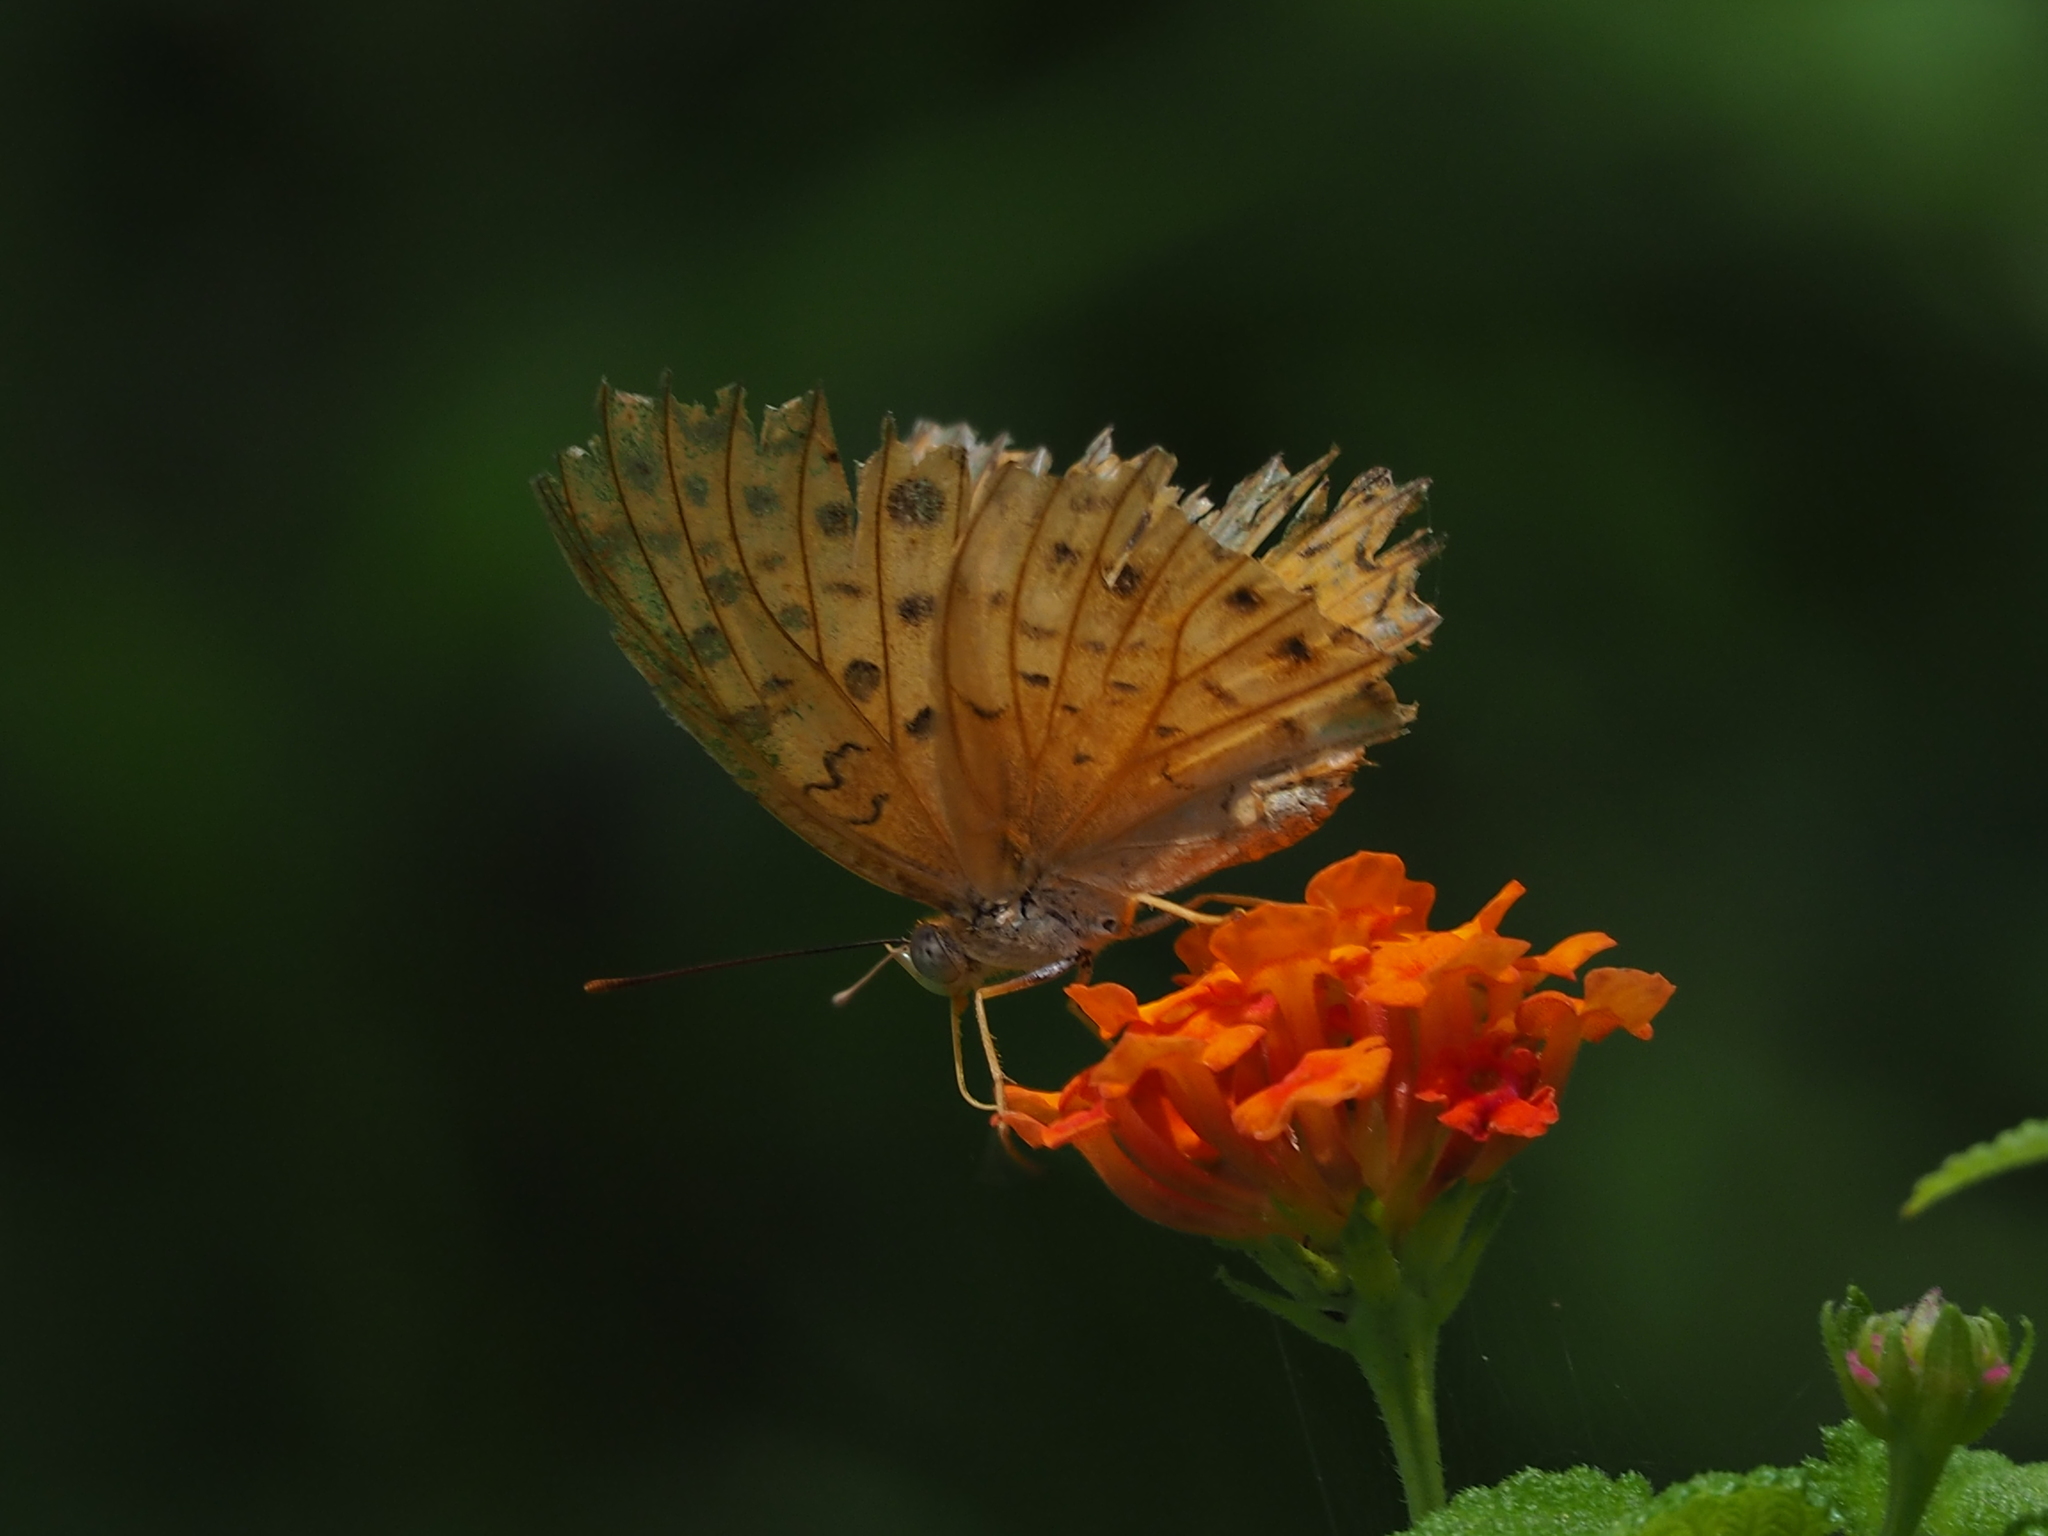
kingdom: Animalia
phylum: Arthropoda
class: Insecta
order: Lepidoptera
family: Nymphalidae
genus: Phalanta
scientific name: Phalanta phalantha
